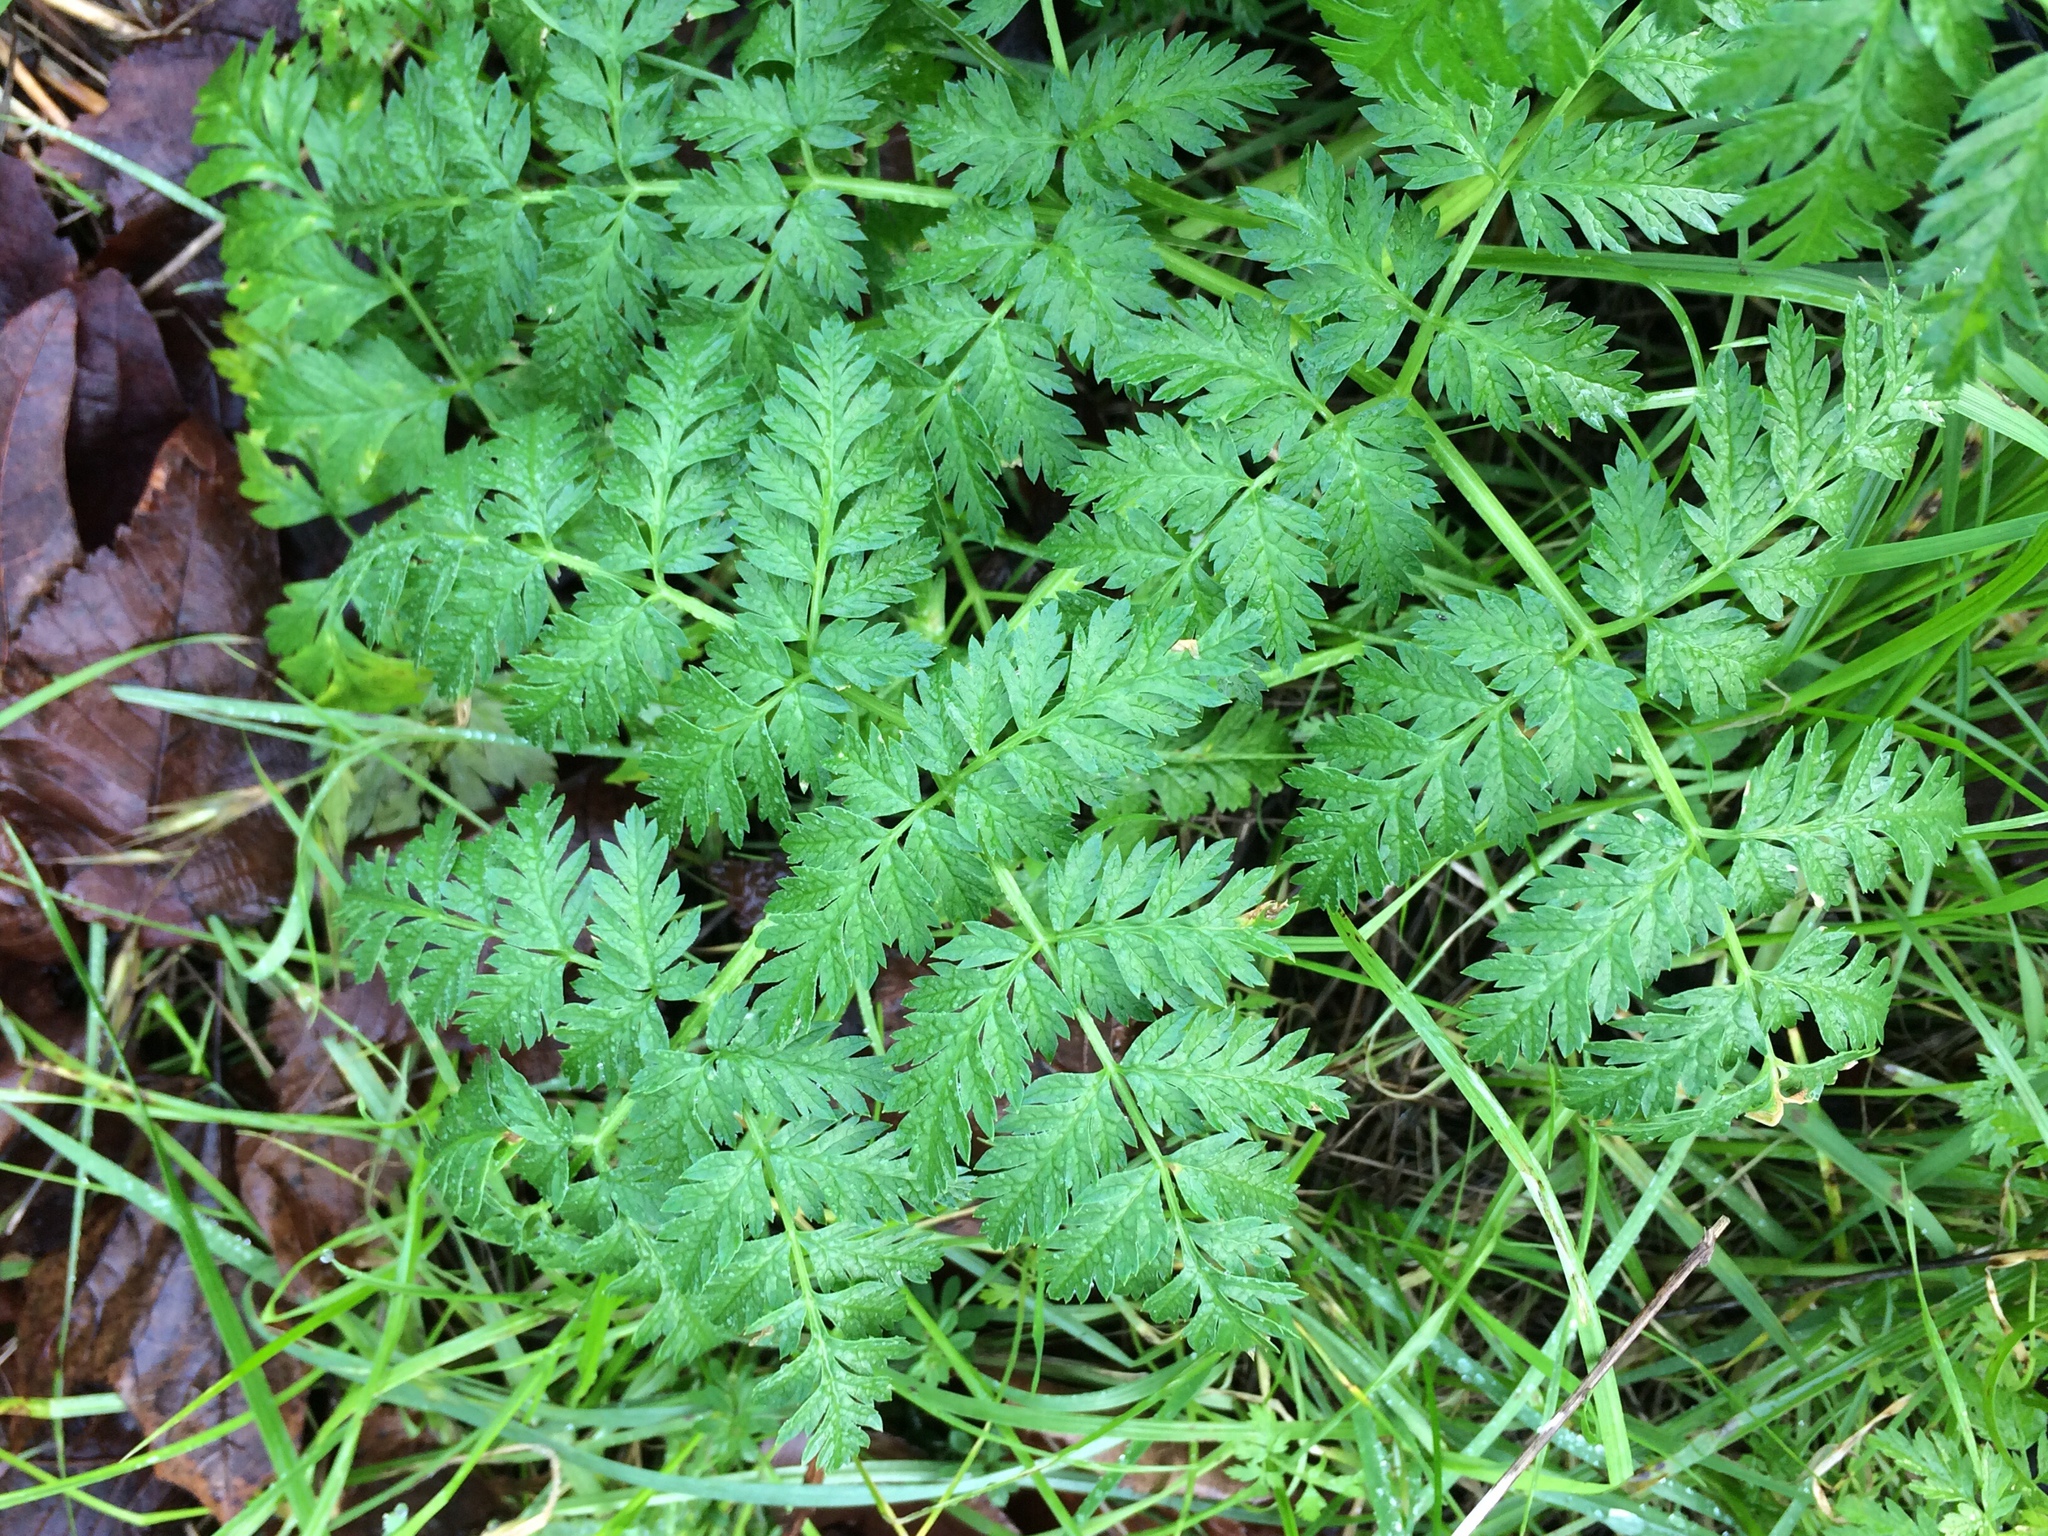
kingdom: Plantae
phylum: Tracheophyta
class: Magnoliopsida
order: Apiales
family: Apiaceae
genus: Conium
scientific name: Conium maculatum
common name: Hemlock
